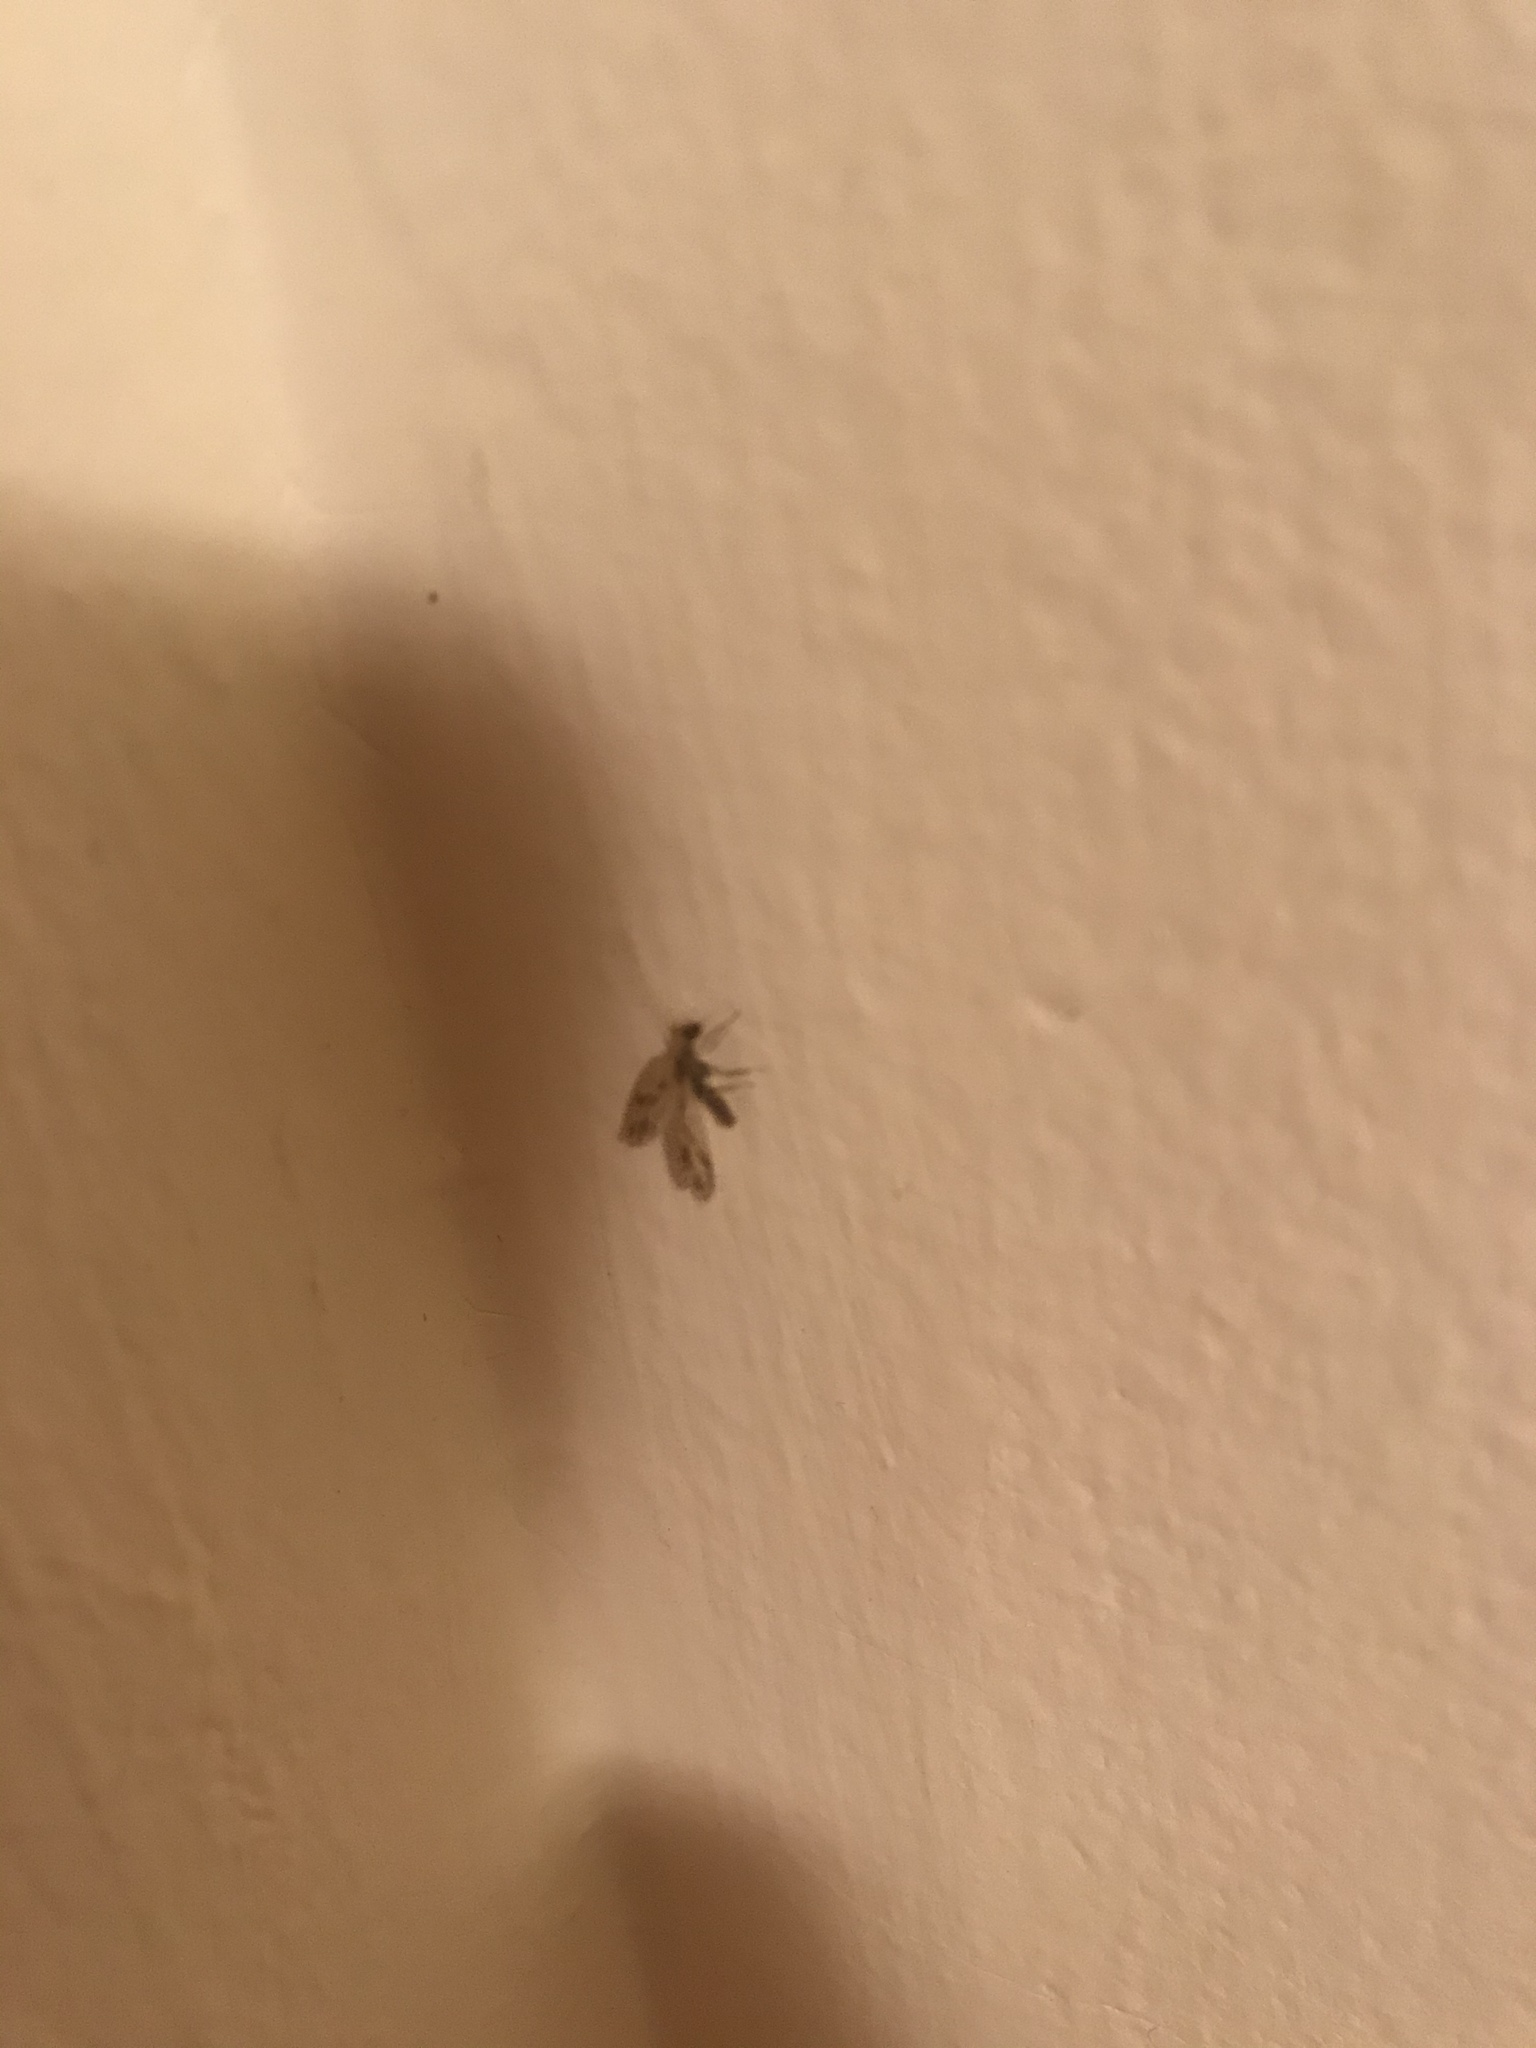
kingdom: Animalia
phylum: Arthropoda
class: Insecta
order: Neuroptera
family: Hemerobiidae
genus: Micromus
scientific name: Micromus variegatus
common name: Brown lacewing
